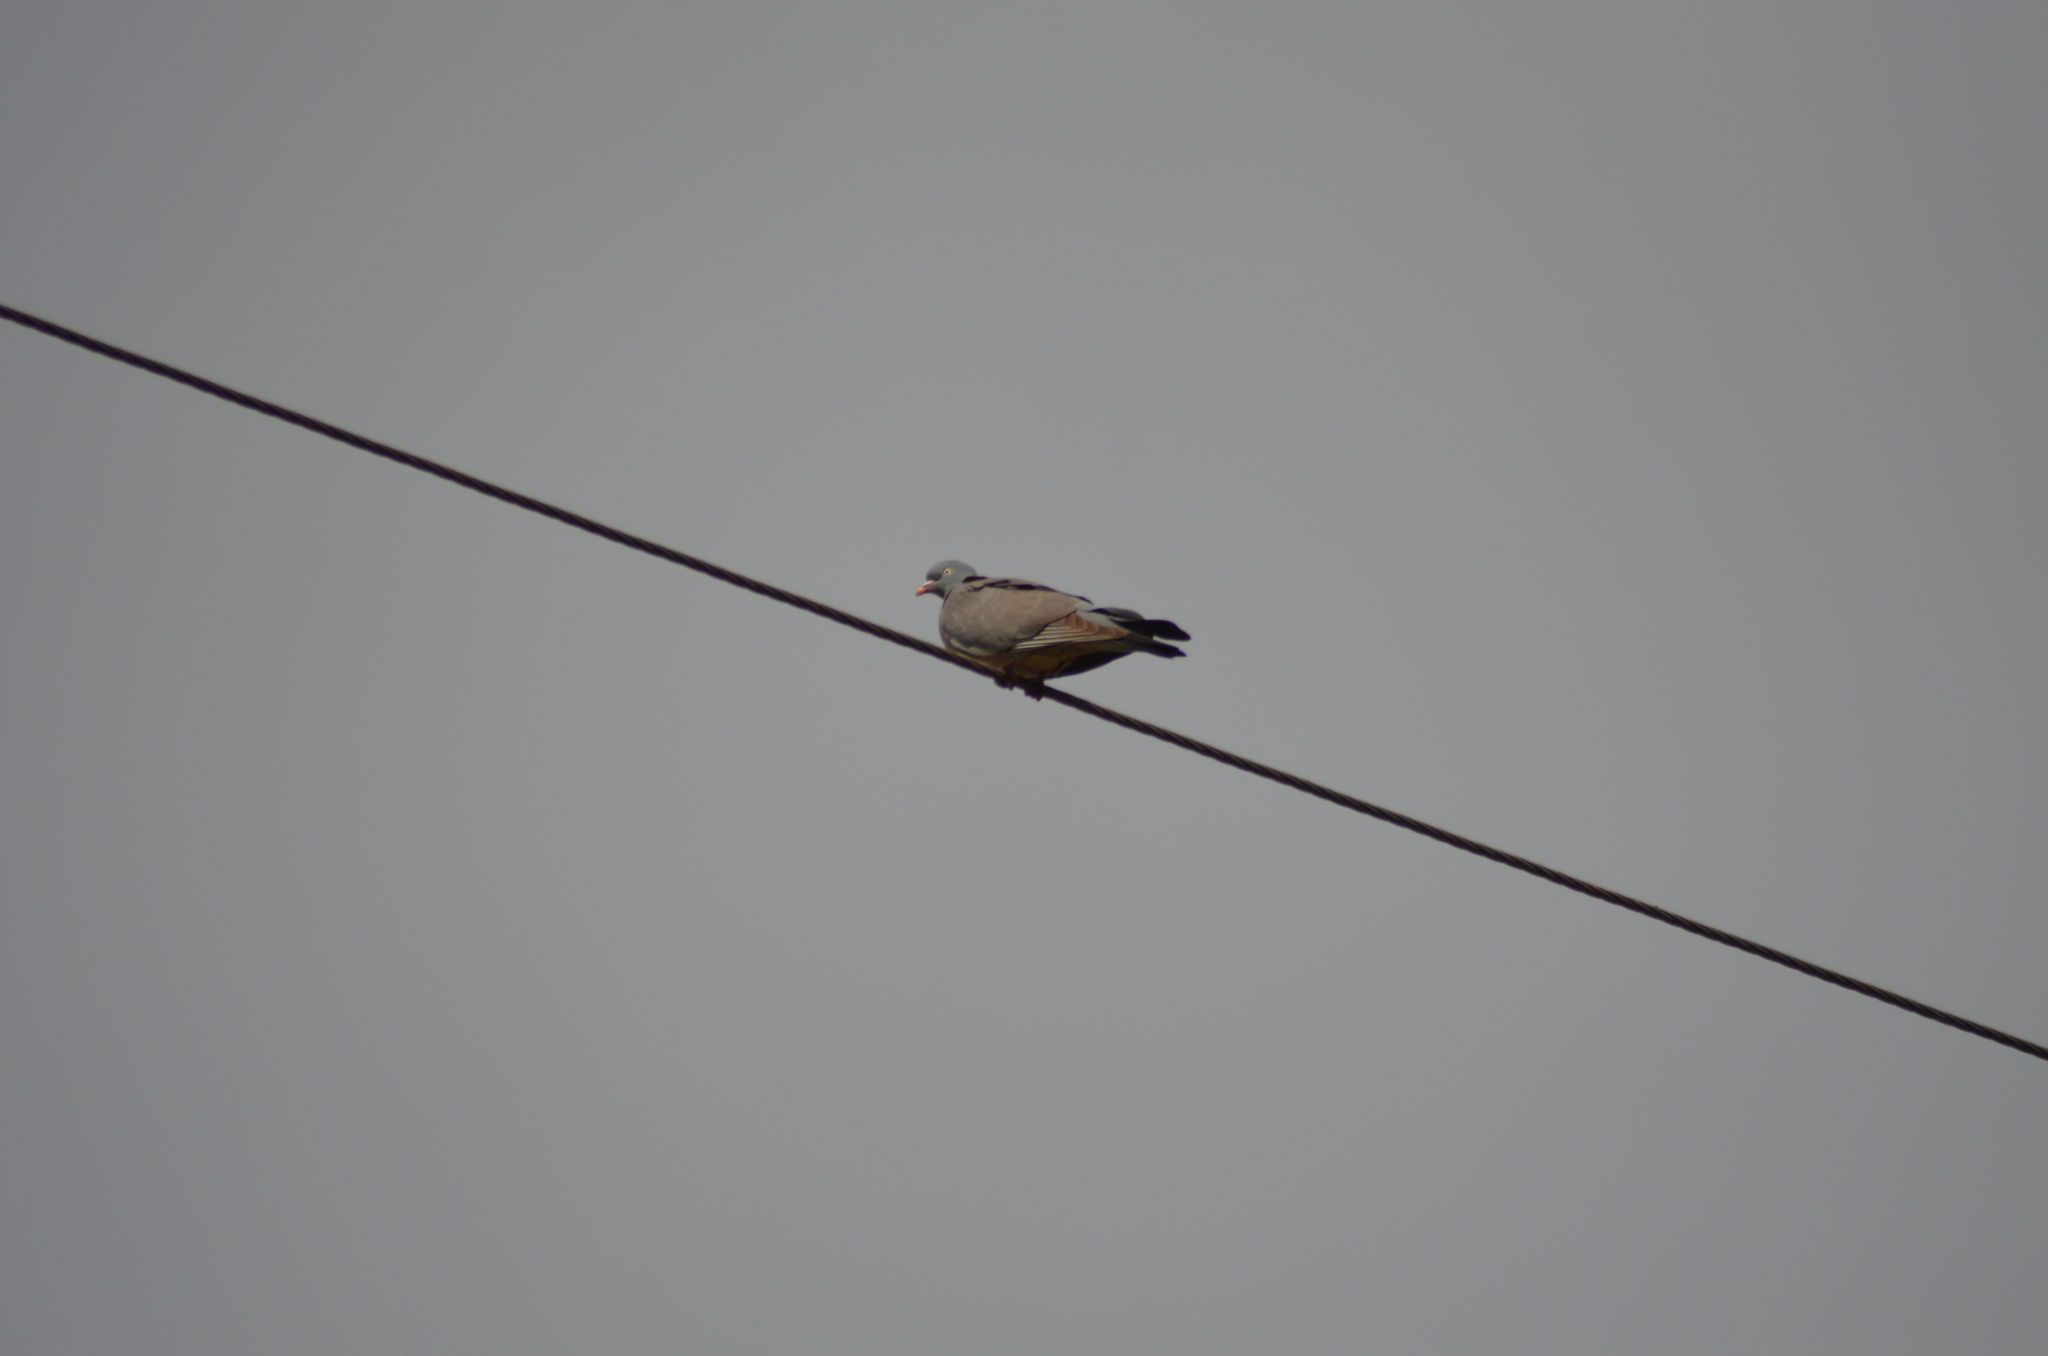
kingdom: Animalia
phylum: Chordata
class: Aves
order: Columbiformes
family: Columbidae
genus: Columba
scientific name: Columba palumbus
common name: Common wood pigeon
